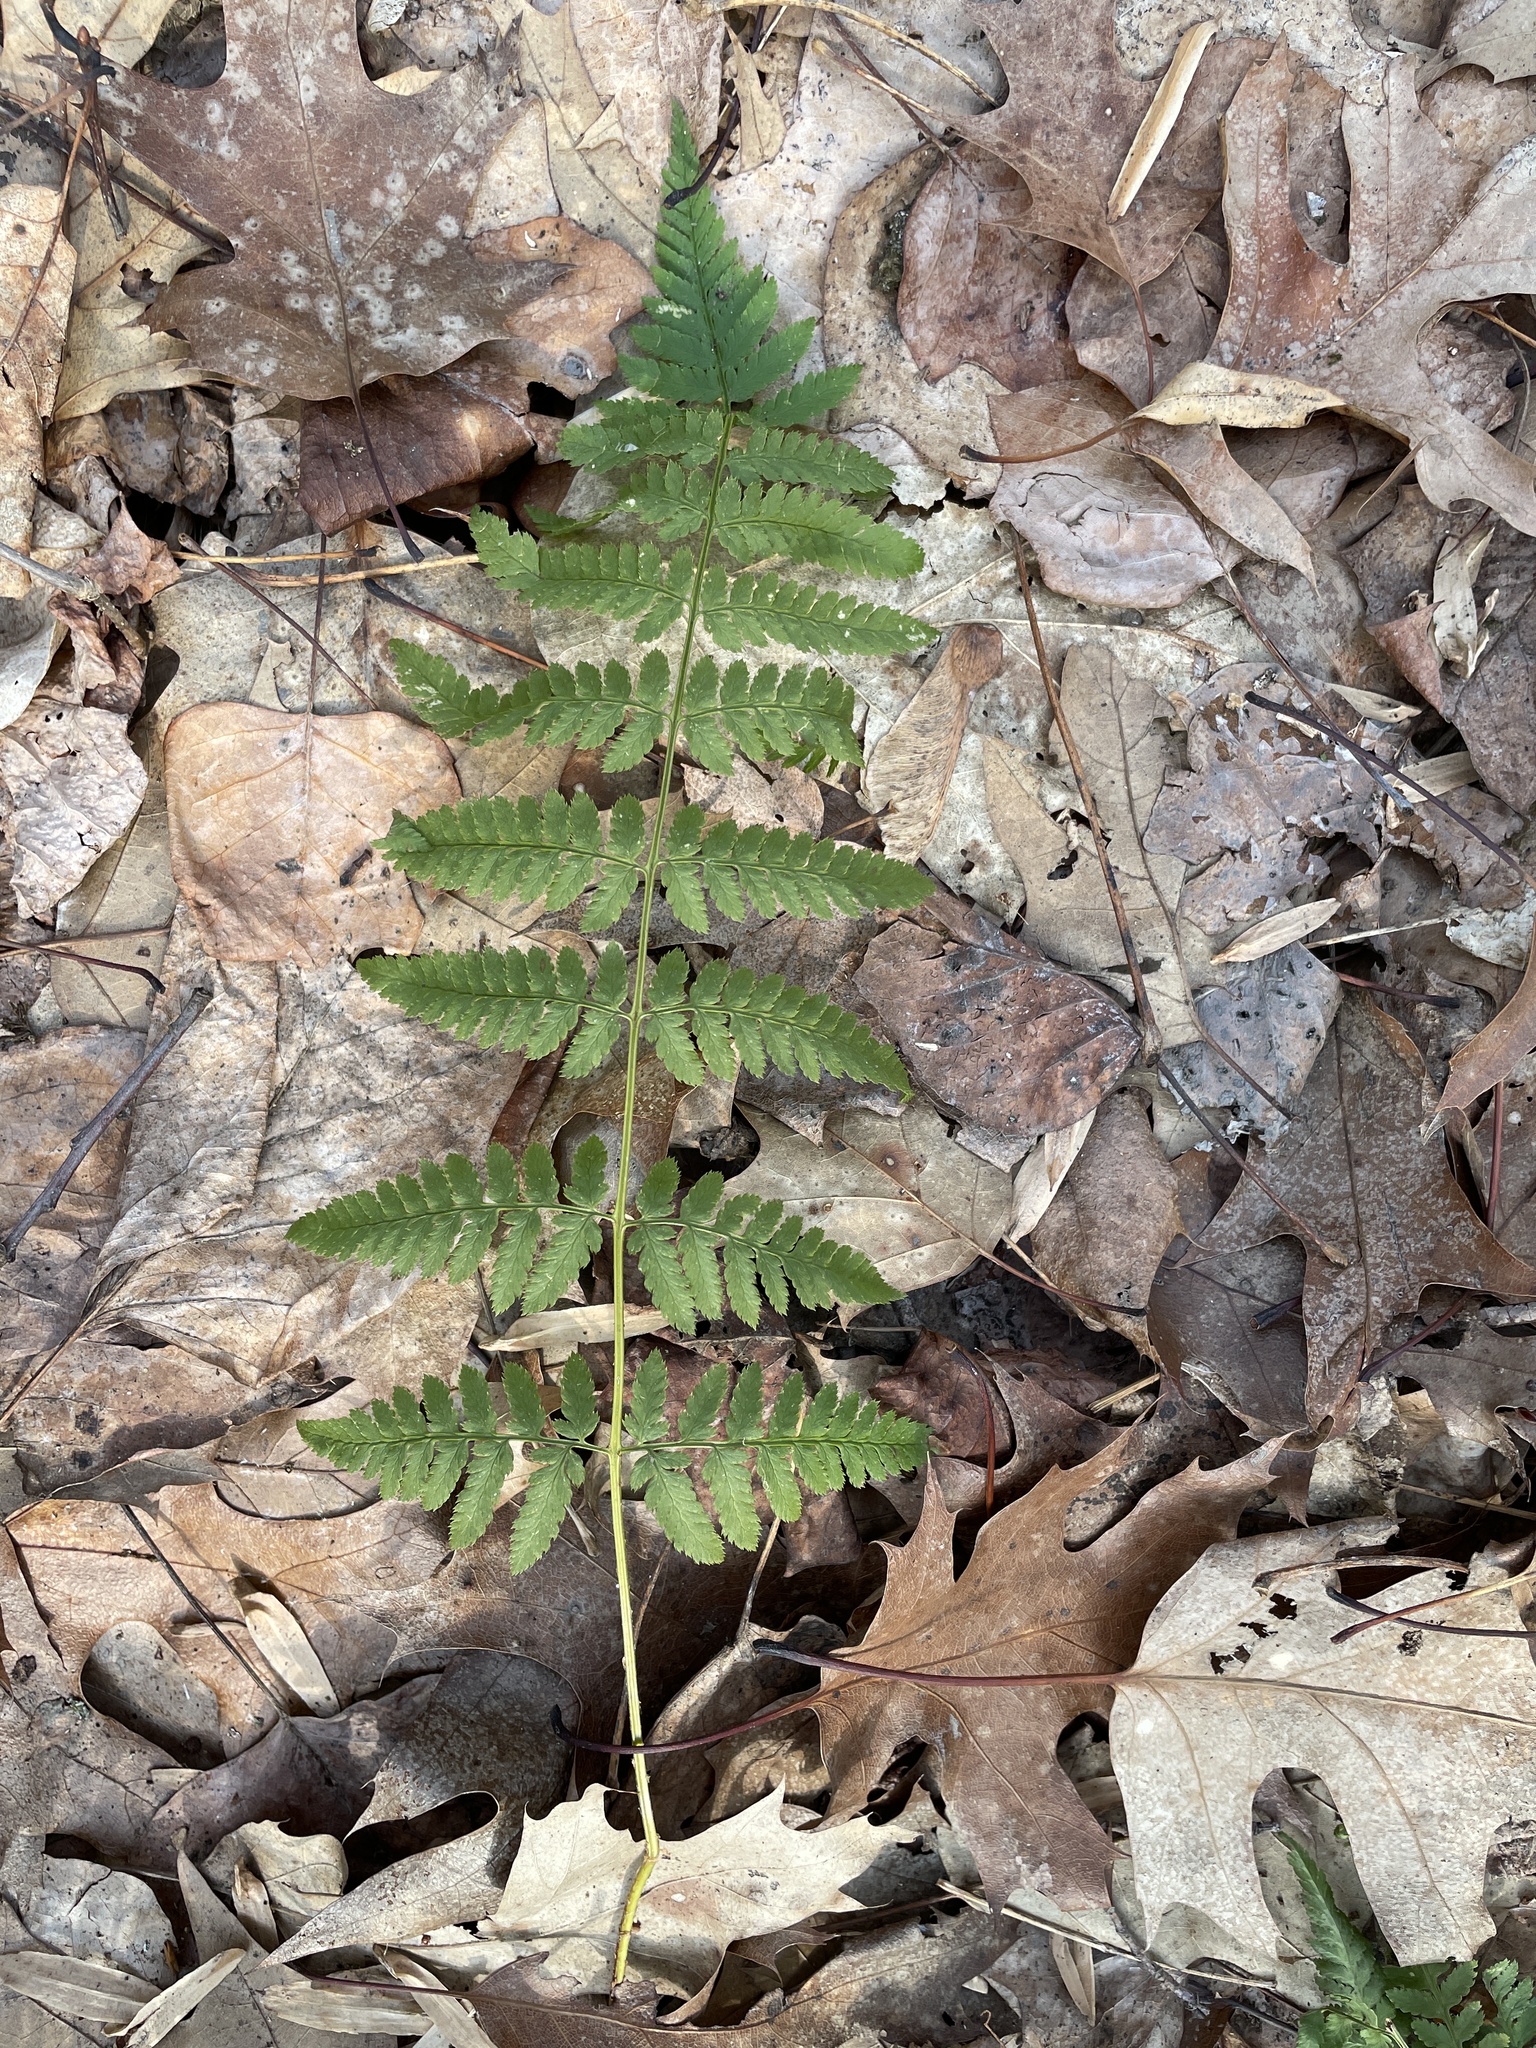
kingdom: Plantae
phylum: Tracheophyta
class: Polypodiopsida
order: Polypodiales
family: Dryopteridaceae
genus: Dryopteris
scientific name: Dryopteris carthusiana
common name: Narrow buckler-fern
